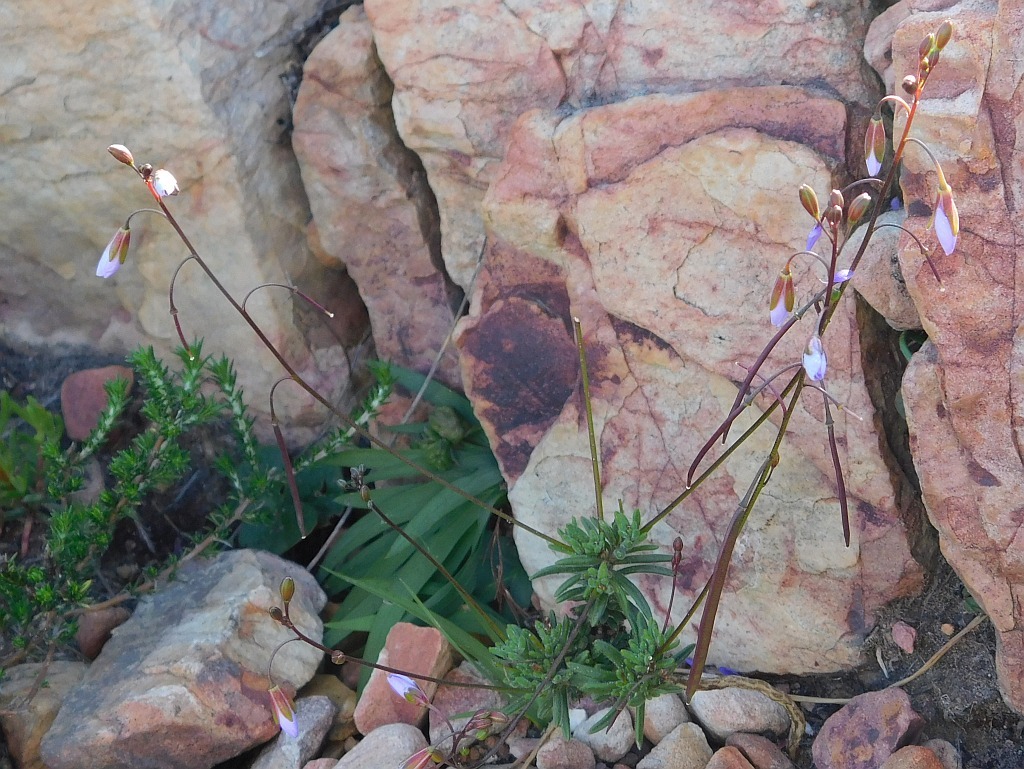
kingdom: Plantae
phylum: Tracheophyta
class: Magnoliopsida
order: Brassicales
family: Brassicaceae
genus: Heliophila
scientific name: Heliophila subulata
